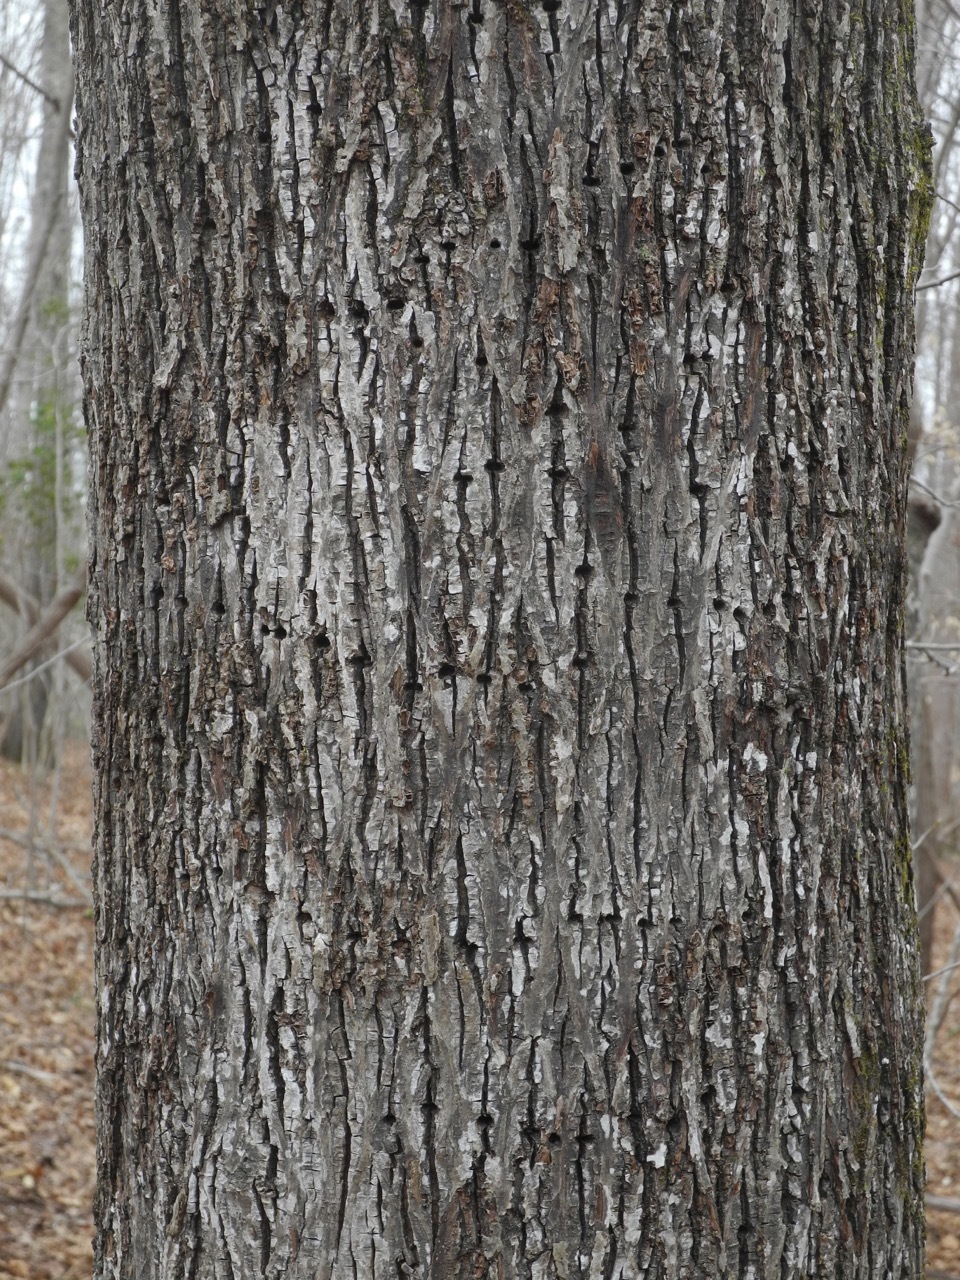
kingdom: Animalia
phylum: Chordata
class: Aves
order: Piciformes
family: Picidae
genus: Sphyrapicus
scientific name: Sphyrapicus varius
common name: Yellow-bellied sapsucker
